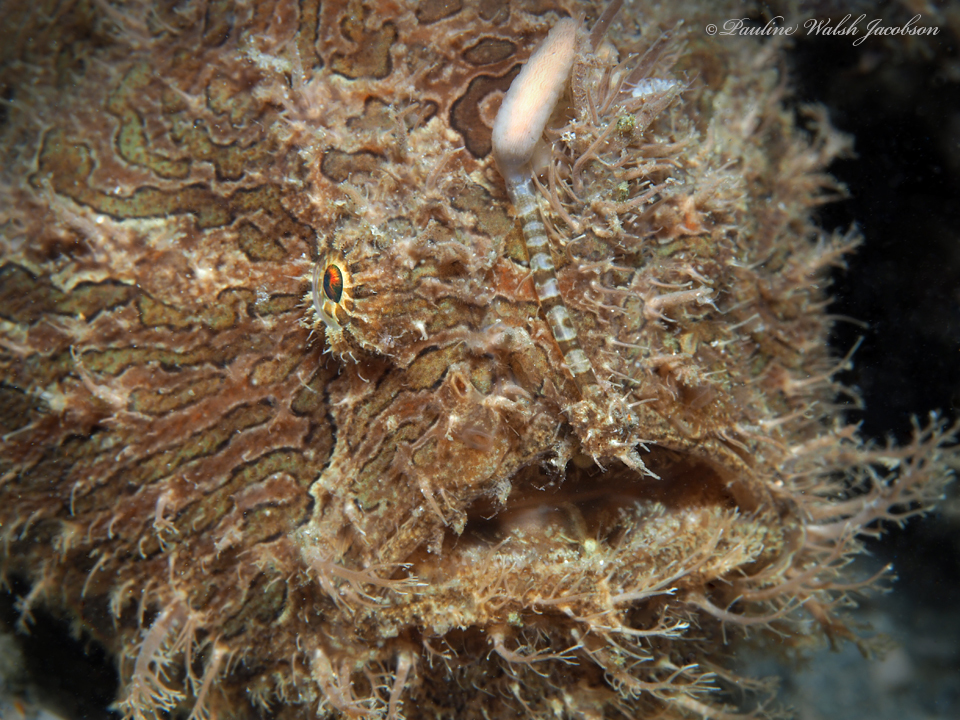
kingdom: Animalia
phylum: Chordata
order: Lophiiformes
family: Antennariidae
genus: Antennarius
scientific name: Antennarius striatus
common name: Striated frogfish
